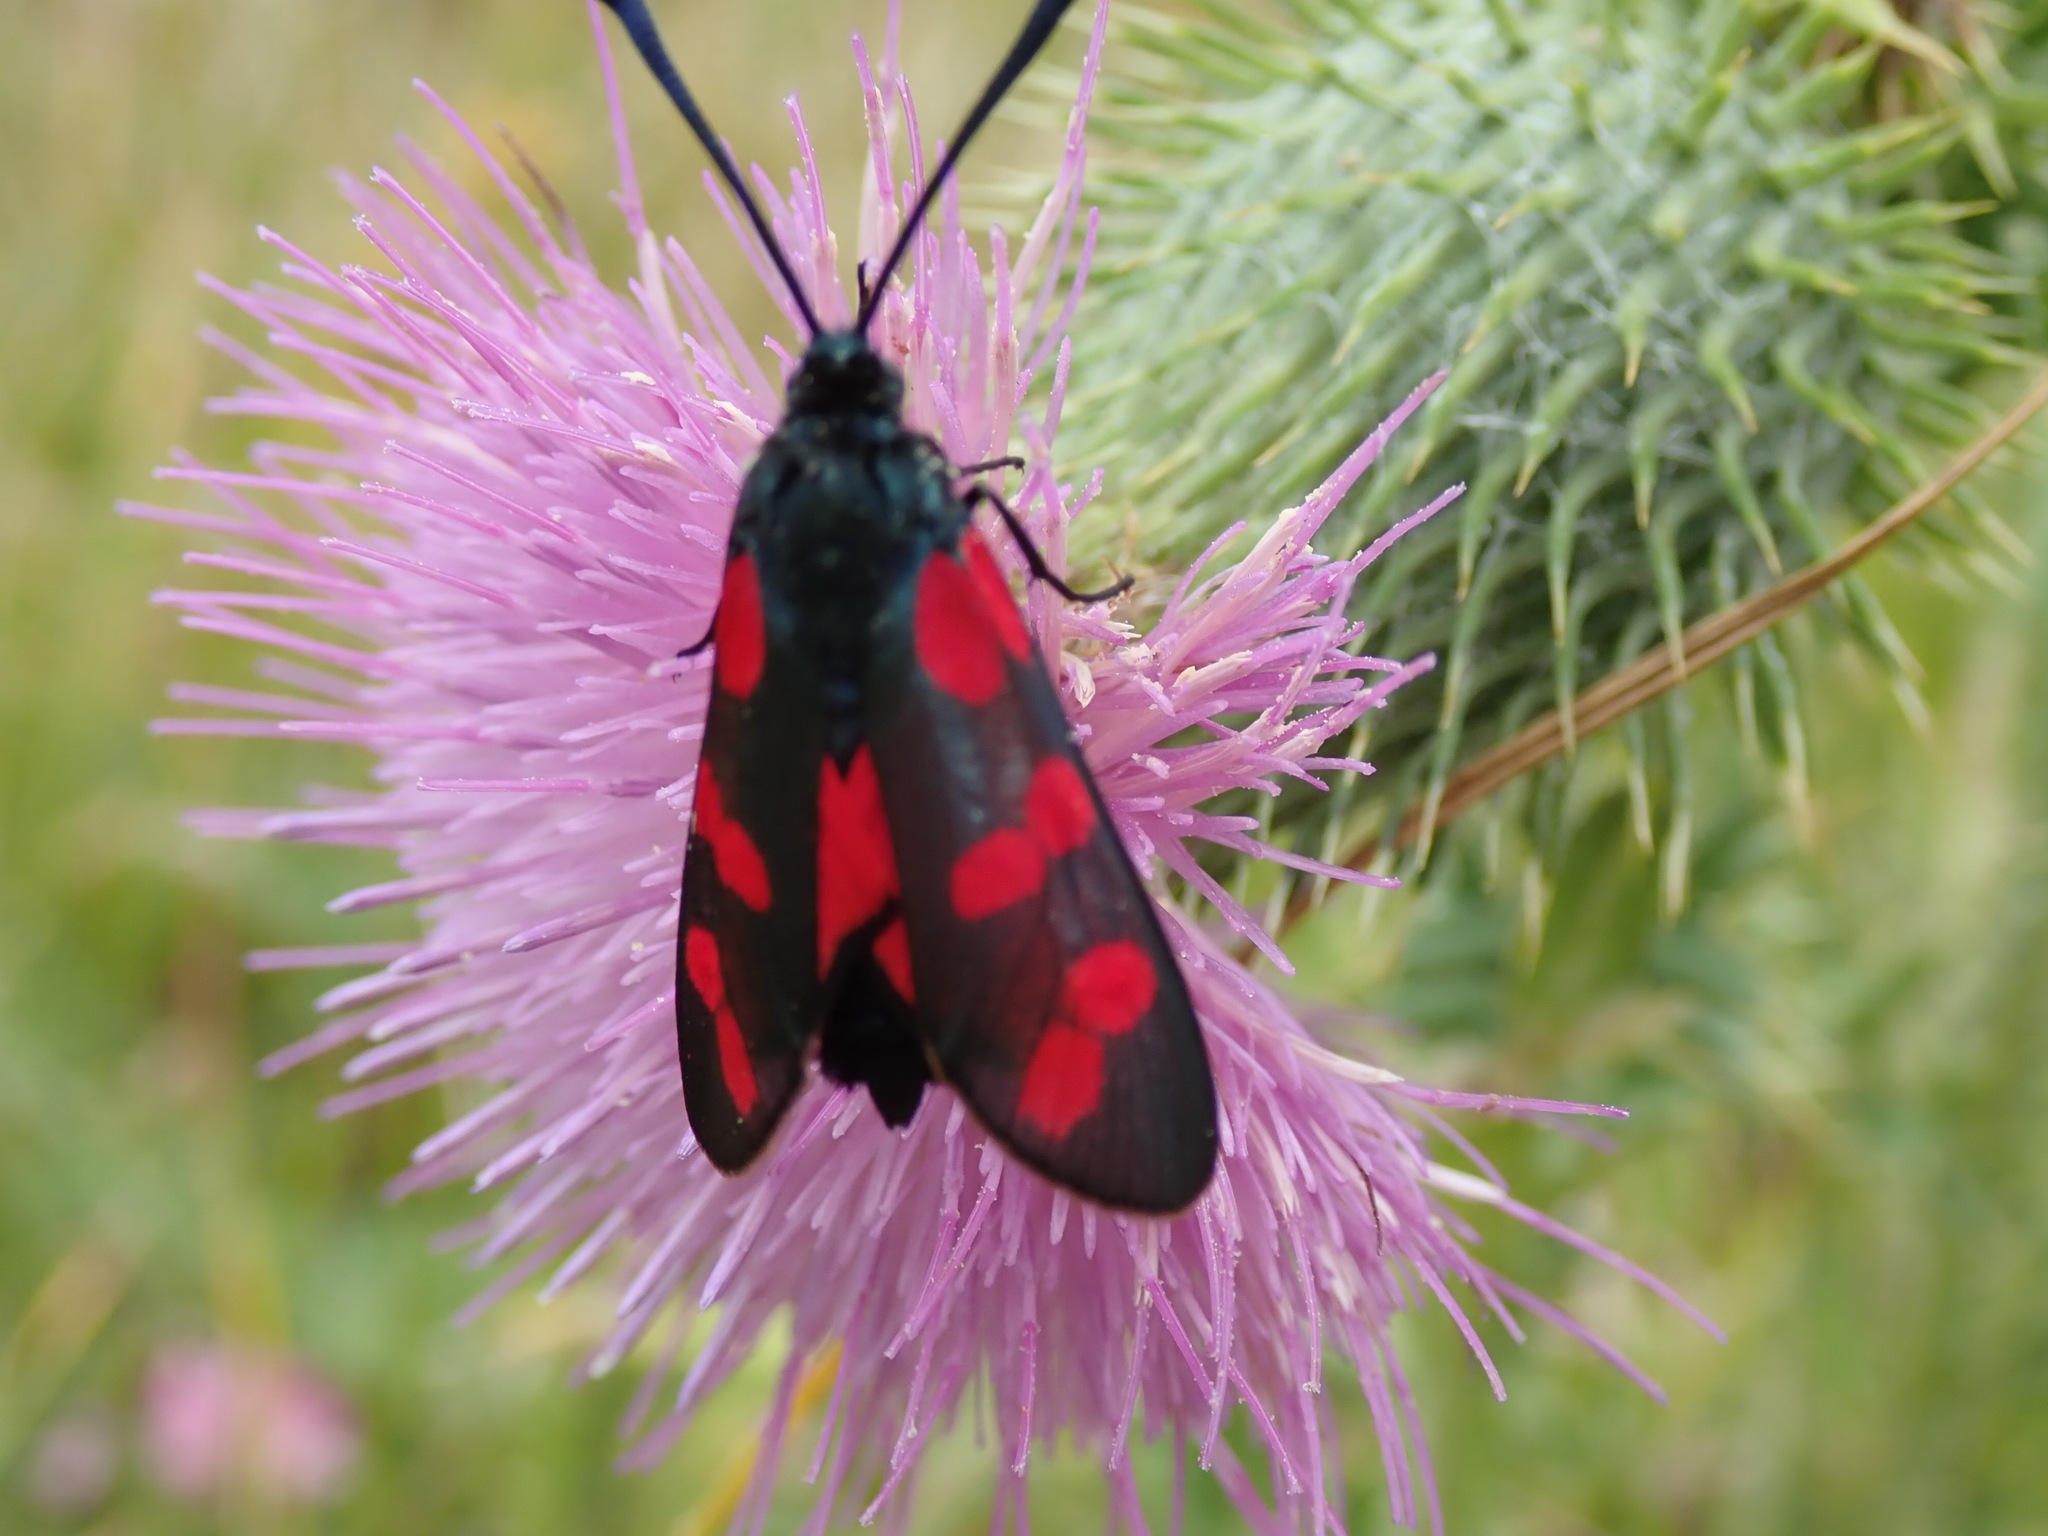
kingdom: Animalia
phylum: Arthropoda
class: Insecta
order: Lepidoptera
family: Zygaenidae
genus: Zygaena
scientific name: Zygaena filipendulae
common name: Six-spot burnet
